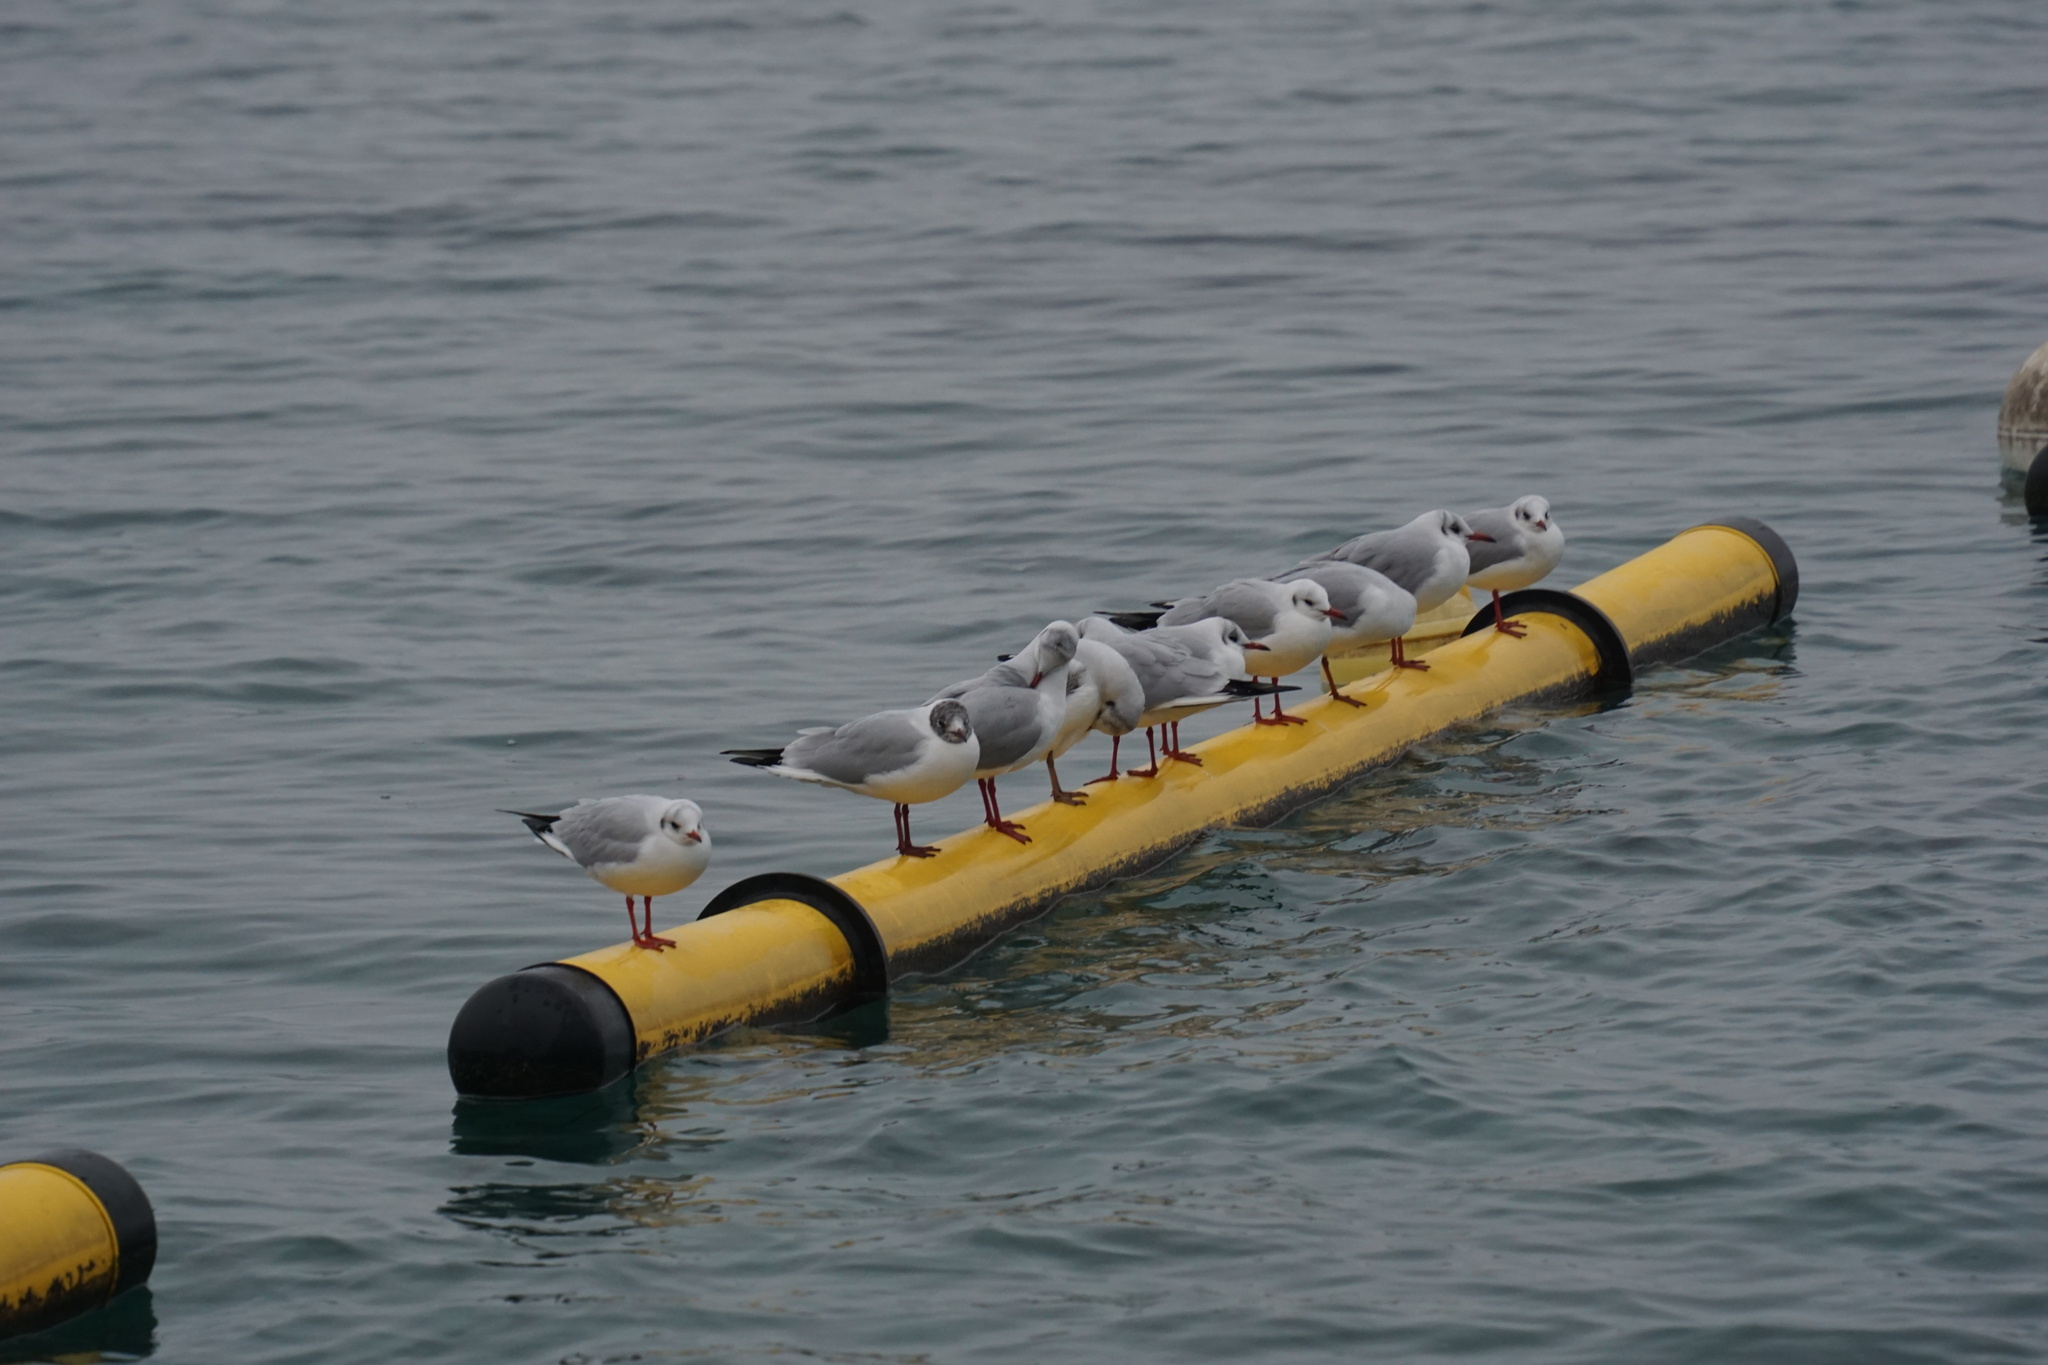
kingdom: Animalia
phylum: Chordata
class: Aves
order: Charadriiformes
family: Laridae
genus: Chroicocephalus
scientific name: Chroicocephalus ridibundus
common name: Black-headed gull
